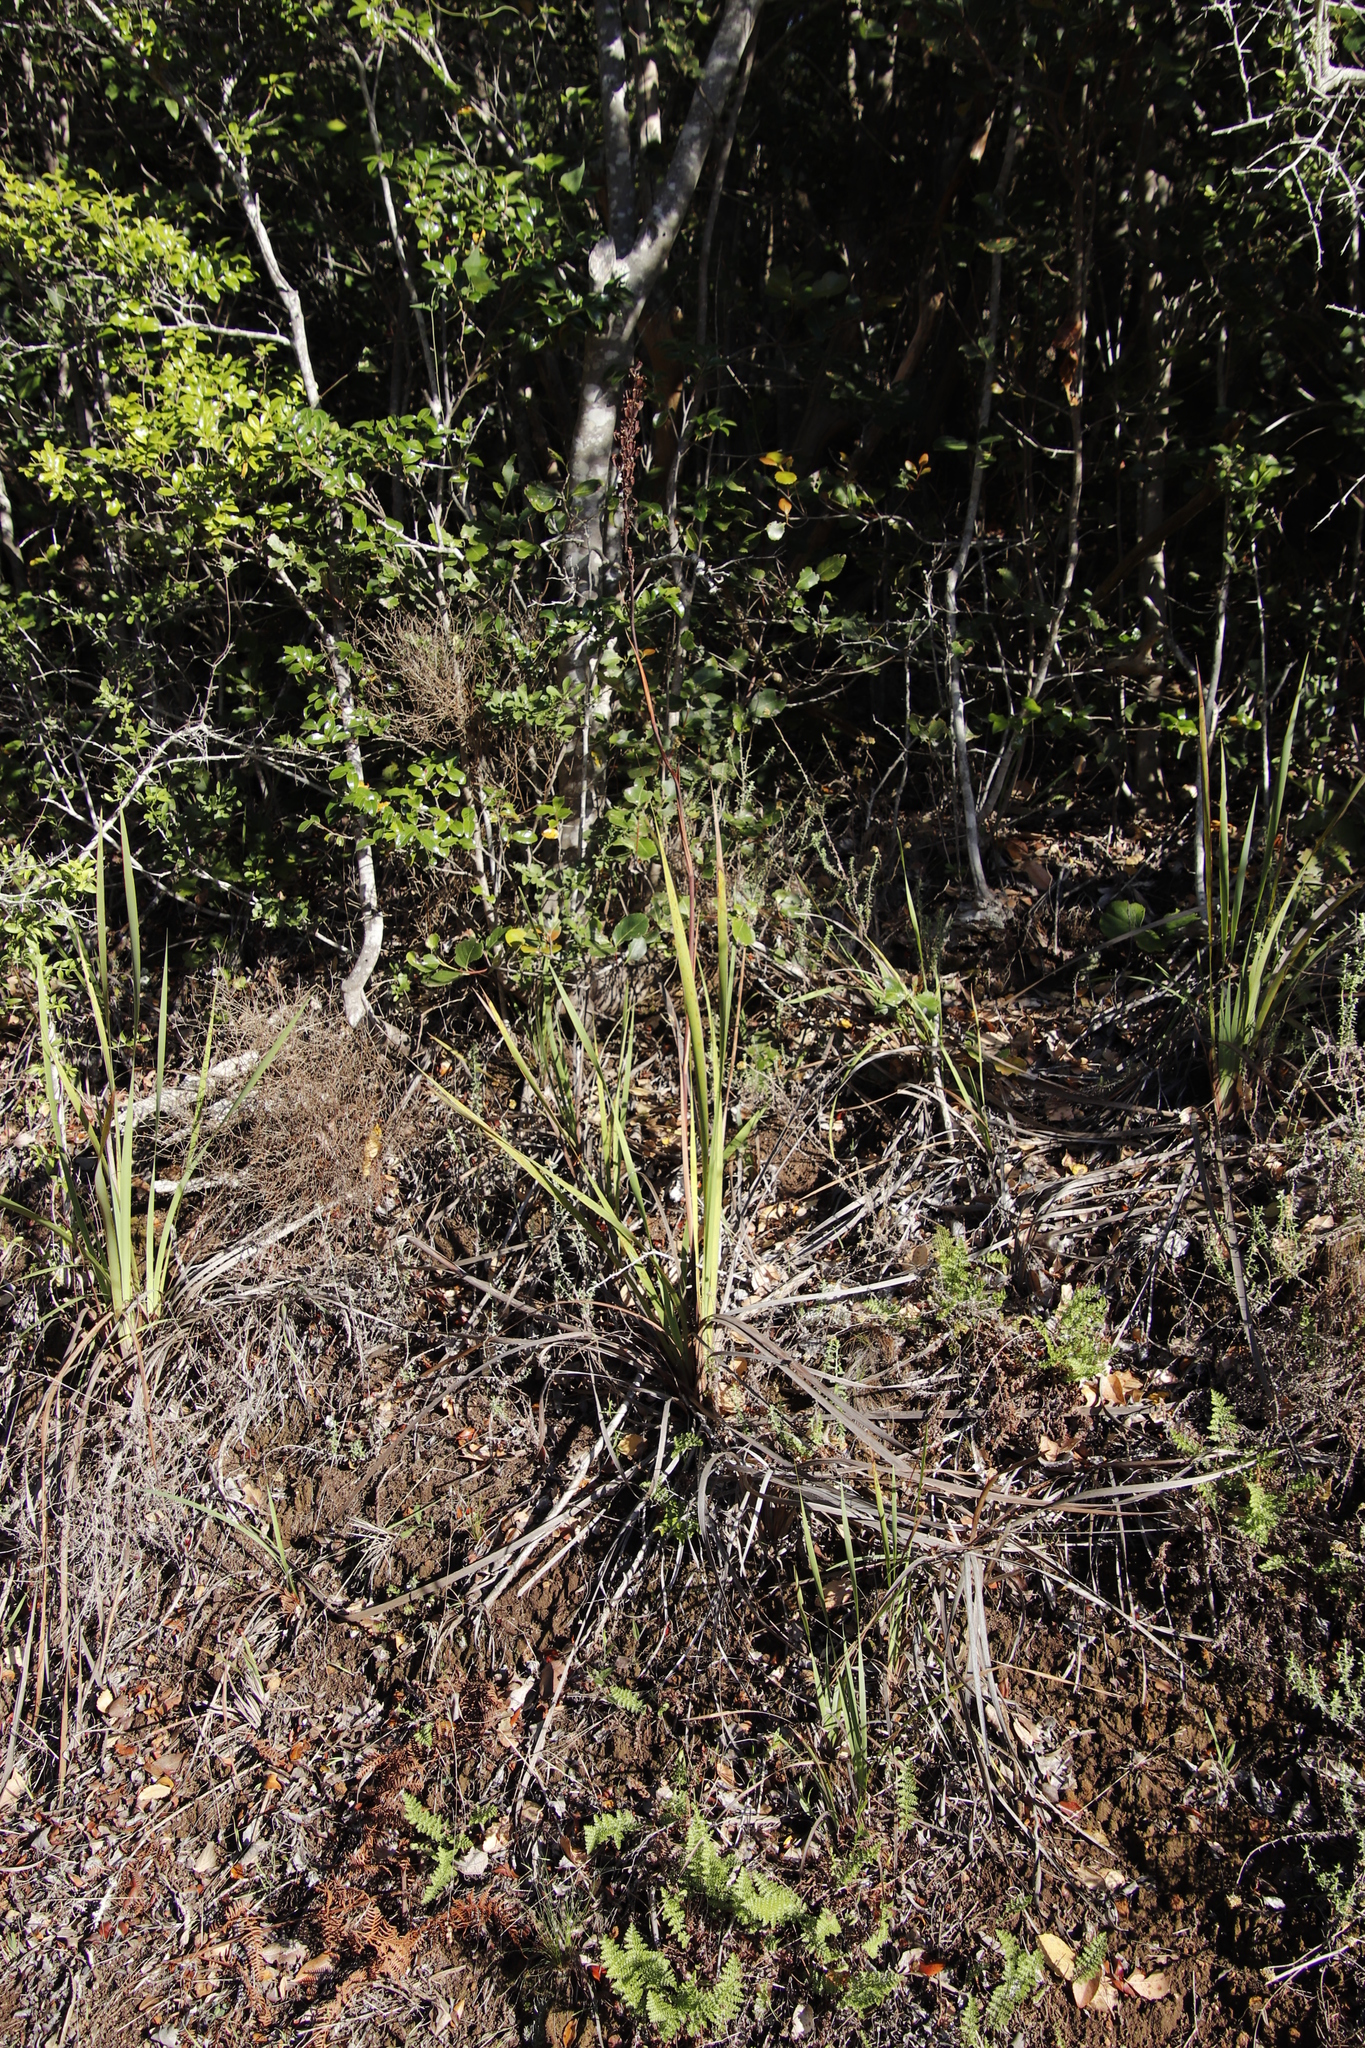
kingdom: Plantae
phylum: Tracheophyta
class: Liliopsida
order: Asparagales
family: Iridaceae
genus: Aristea
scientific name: Aristea capitata
